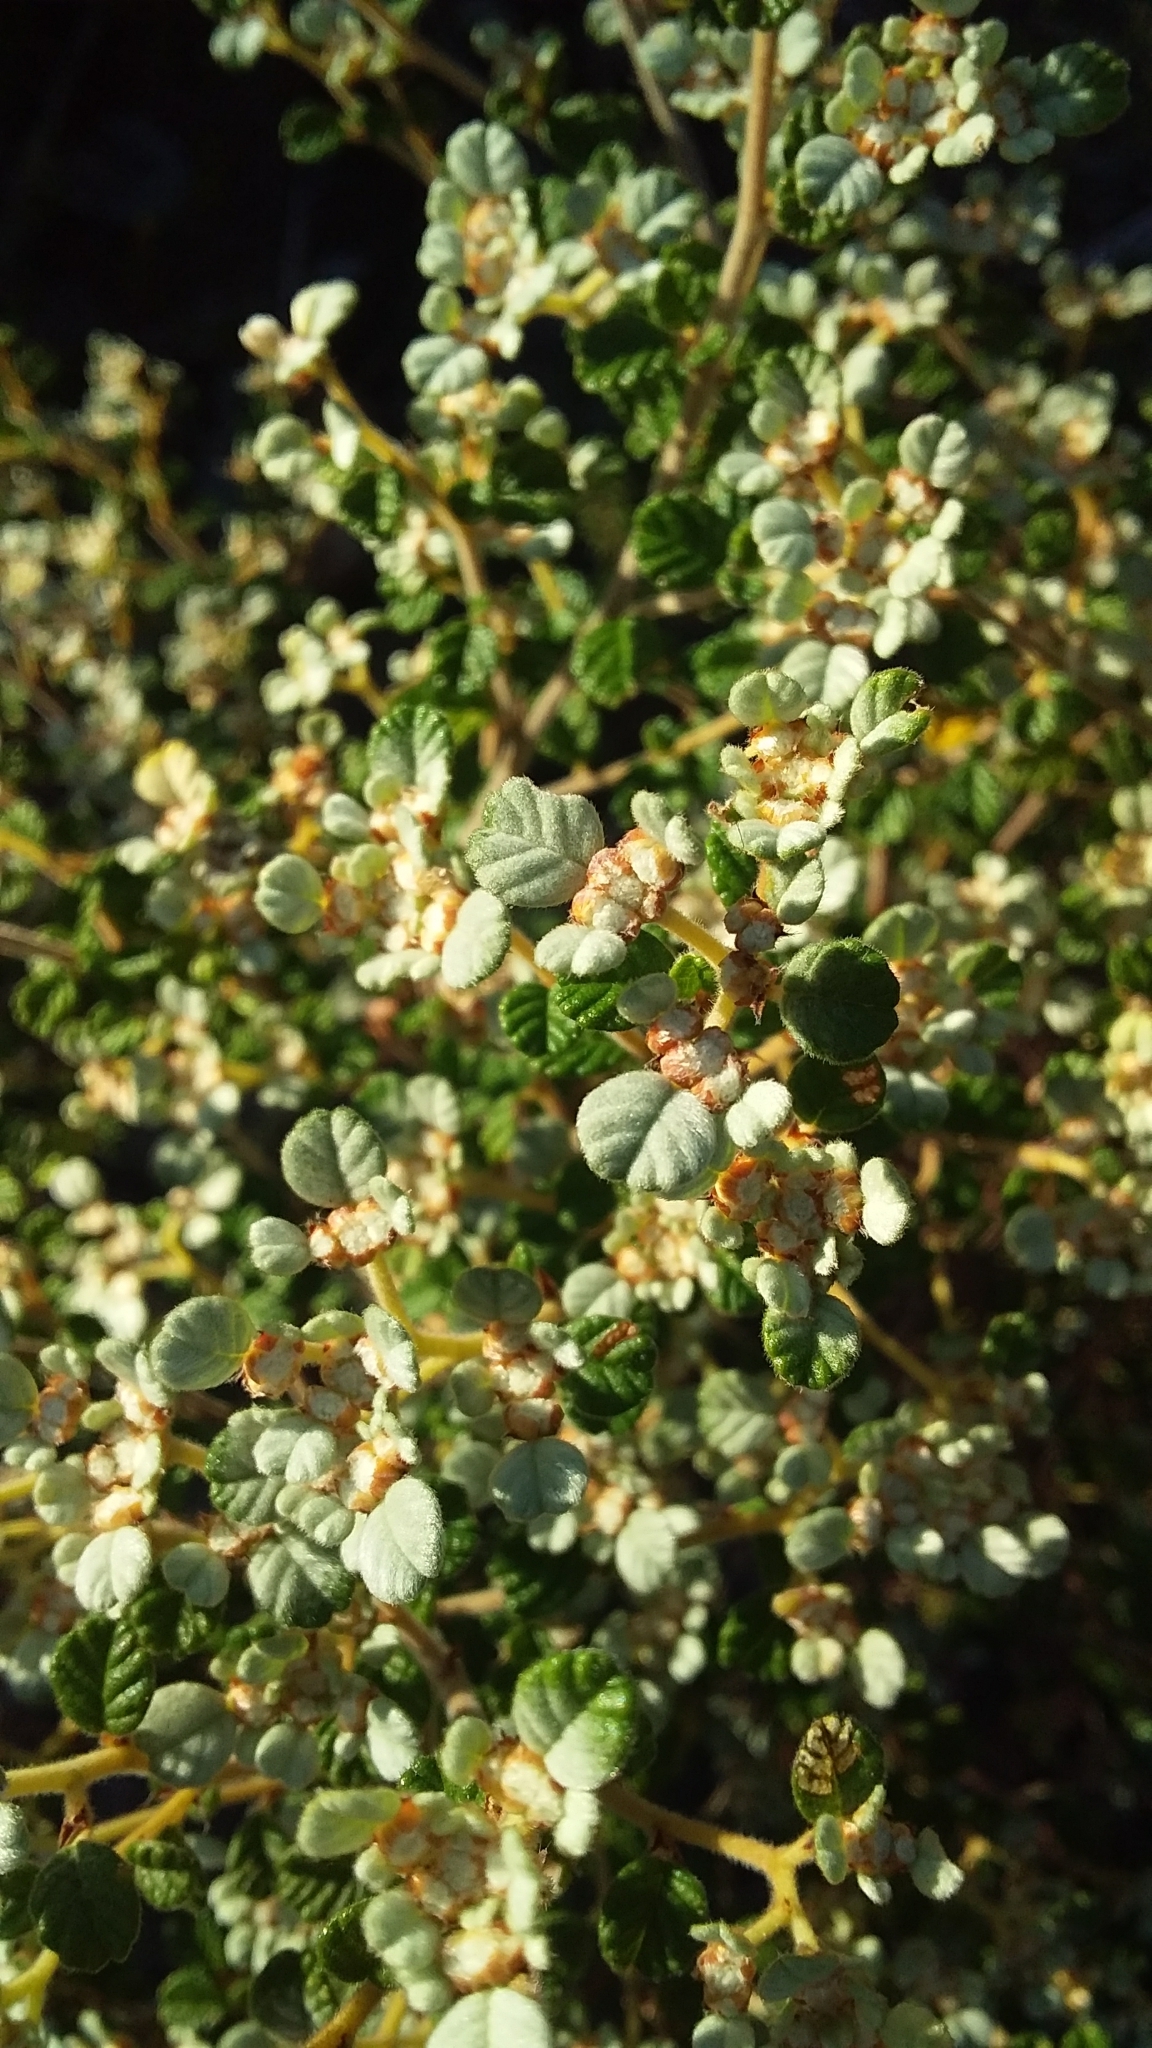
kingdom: Plantae
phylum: Tracheophyta
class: Magnoliopsida
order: Rosales
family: Rhamnaceae
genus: Spyridium
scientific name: Spyridium parvifolium
